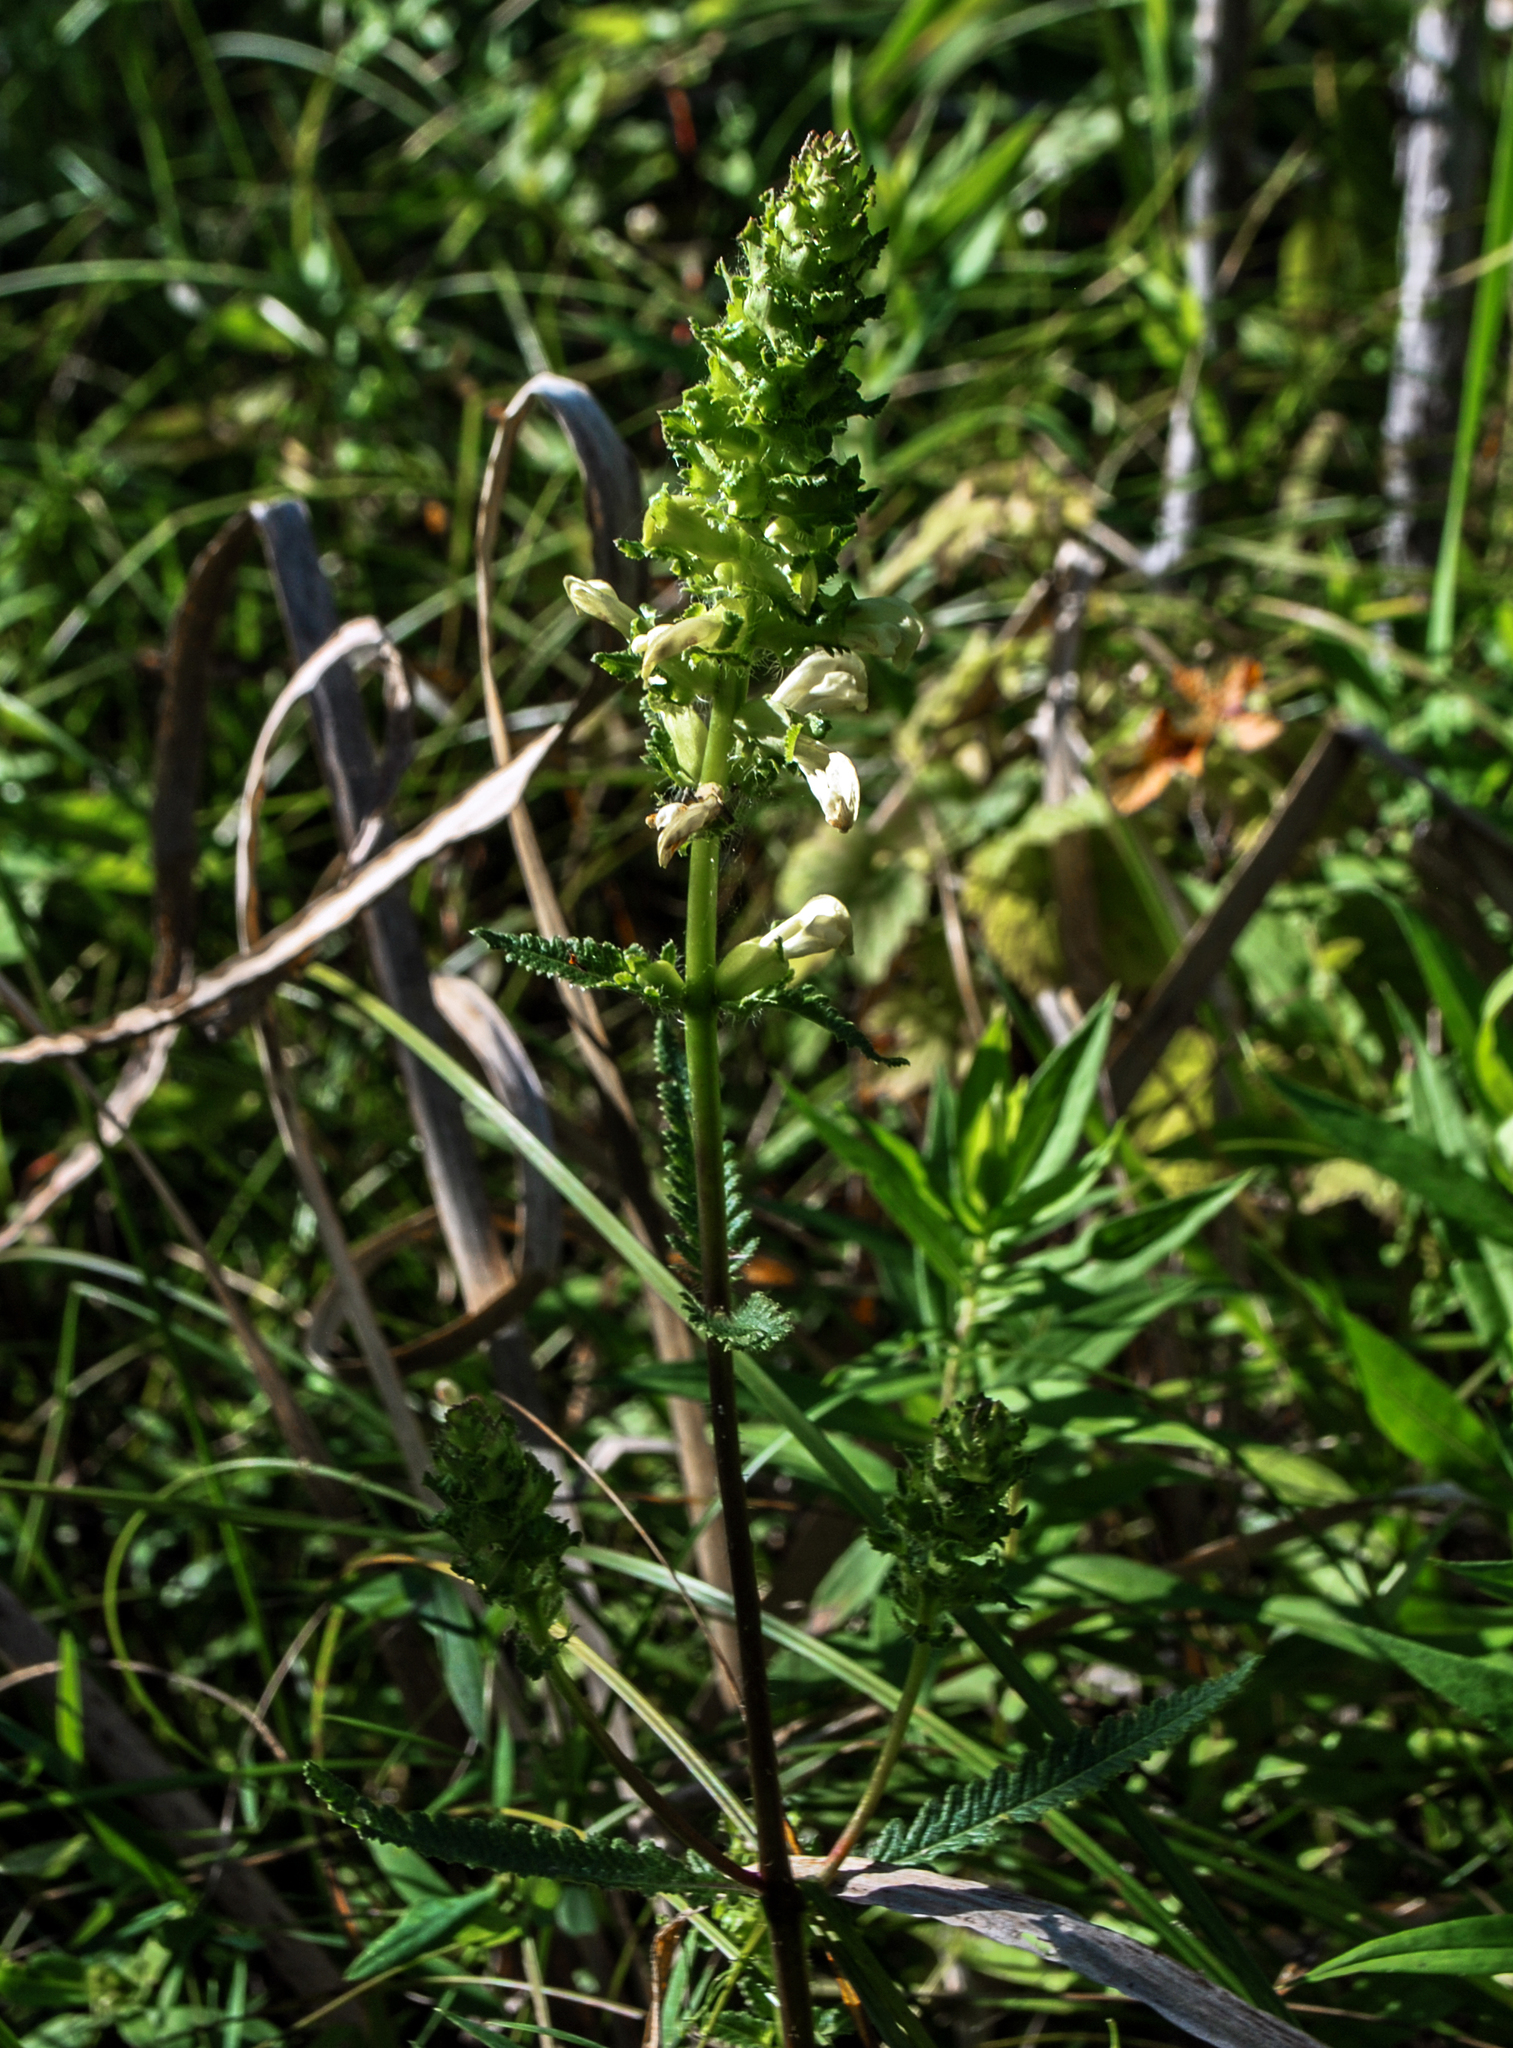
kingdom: Plantae
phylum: Tracheophyta
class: Magnoliopsida
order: Lamiales
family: Orobanchaceae
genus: Pedicularis
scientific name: Pedicularis lanceolata
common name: Swamp lousewort
